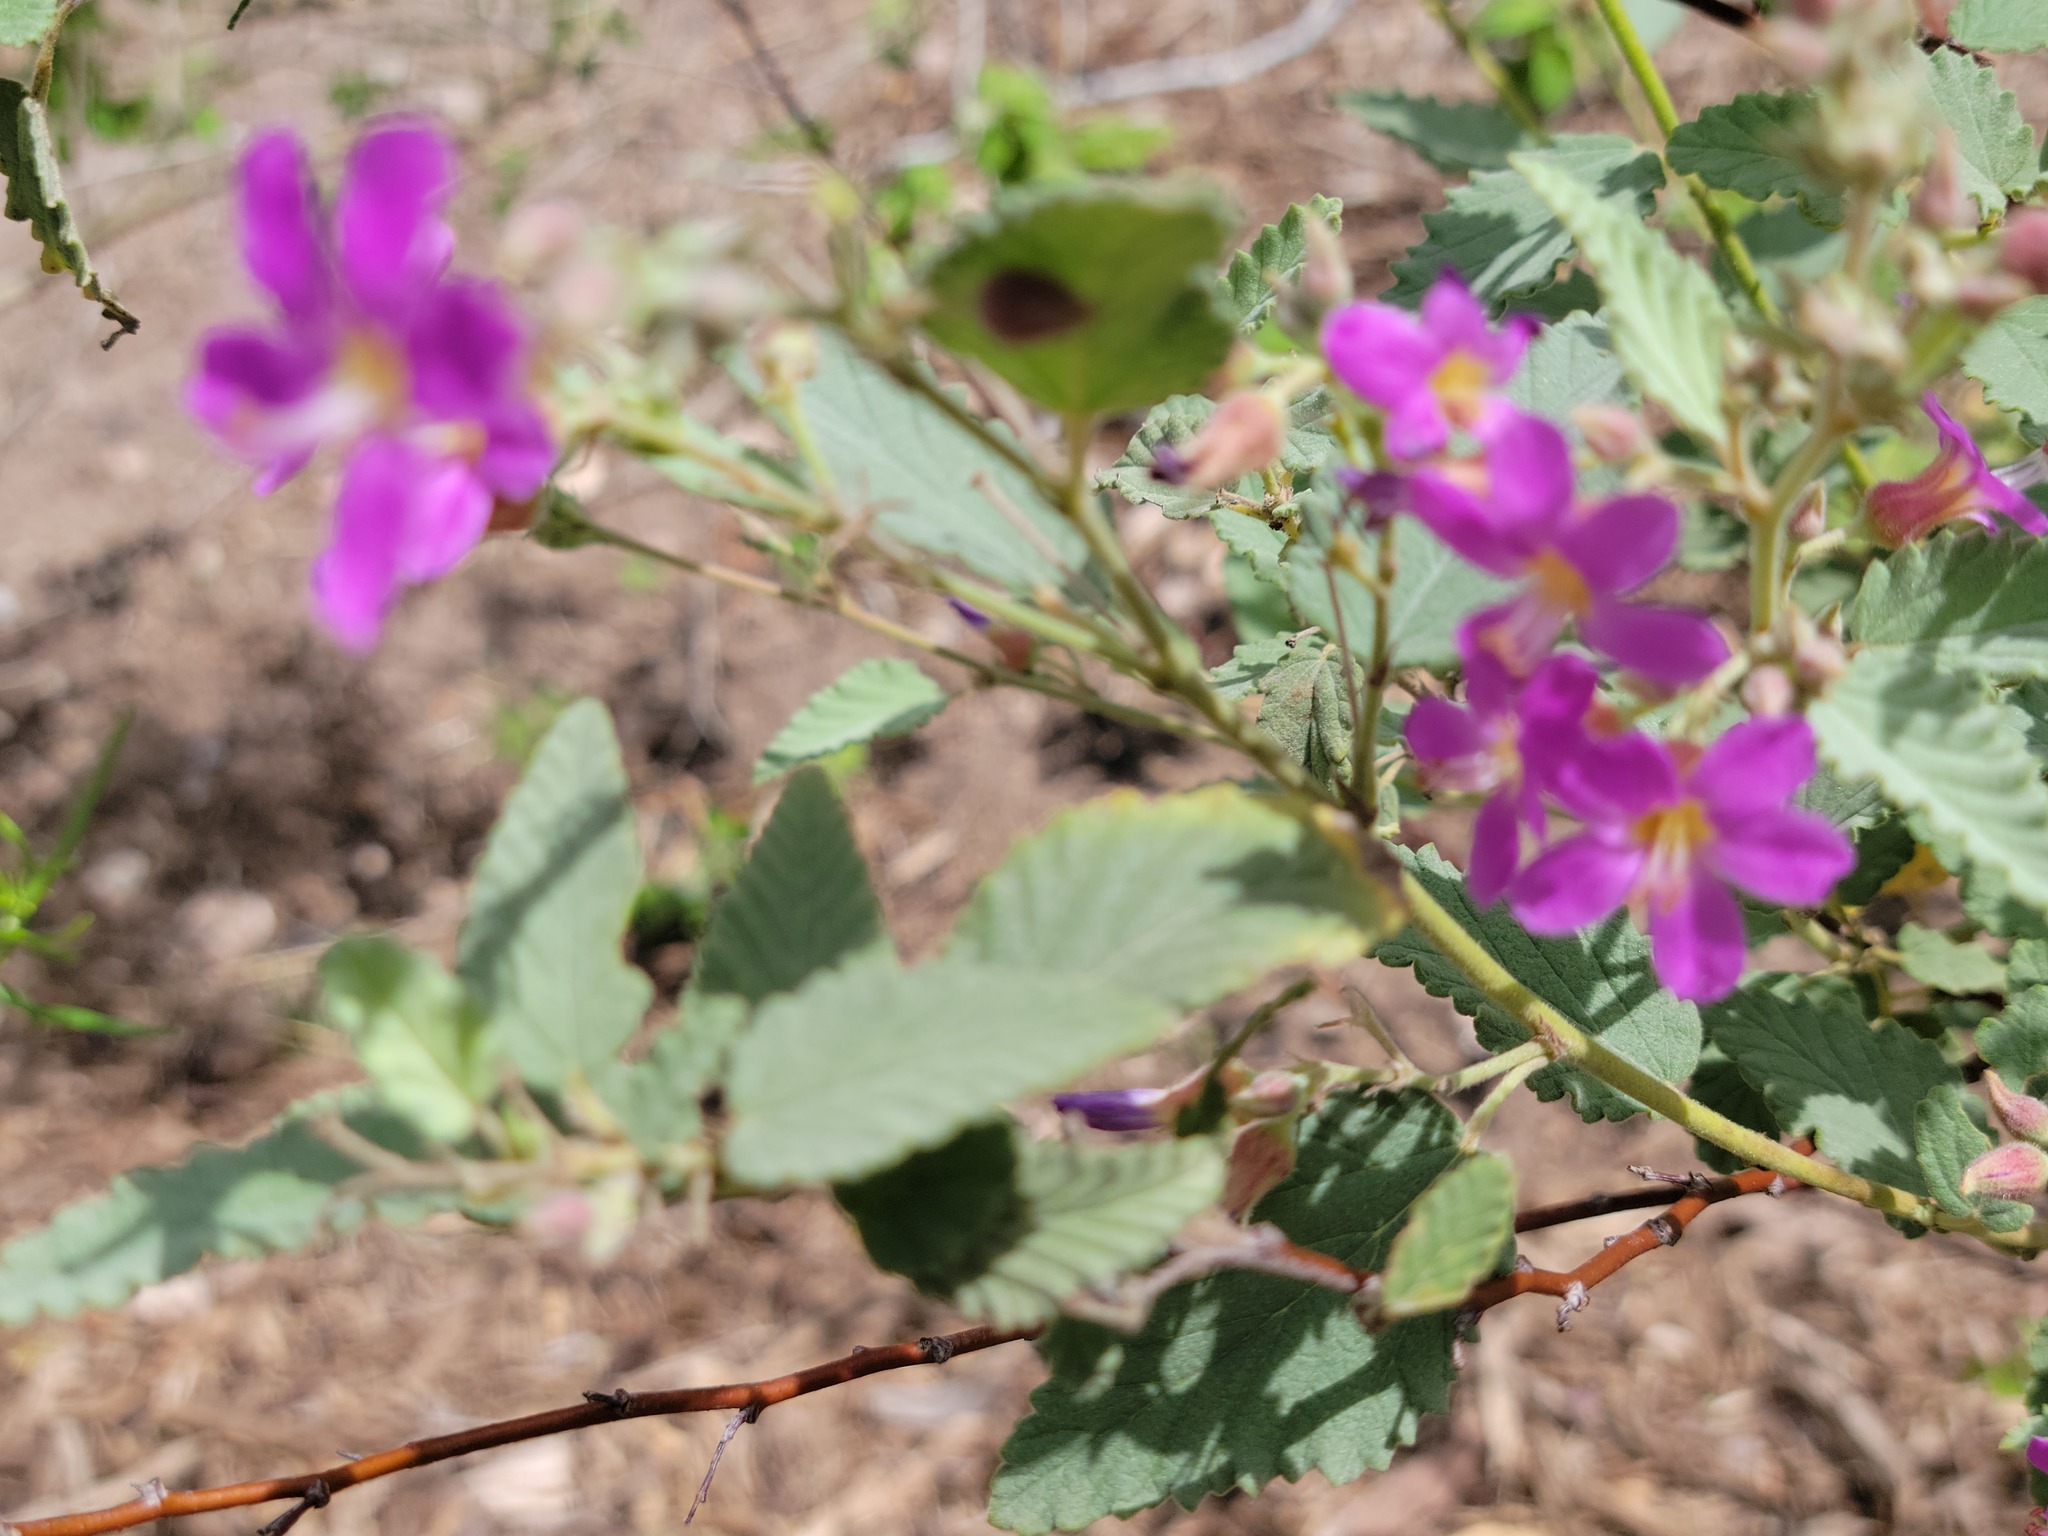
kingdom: Plantae
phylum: Tracheophyta
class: Magnoliopsida
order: Malvales
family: Malvaceae
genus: Melochia
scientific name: Melochia tomentosa
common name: Black torch
